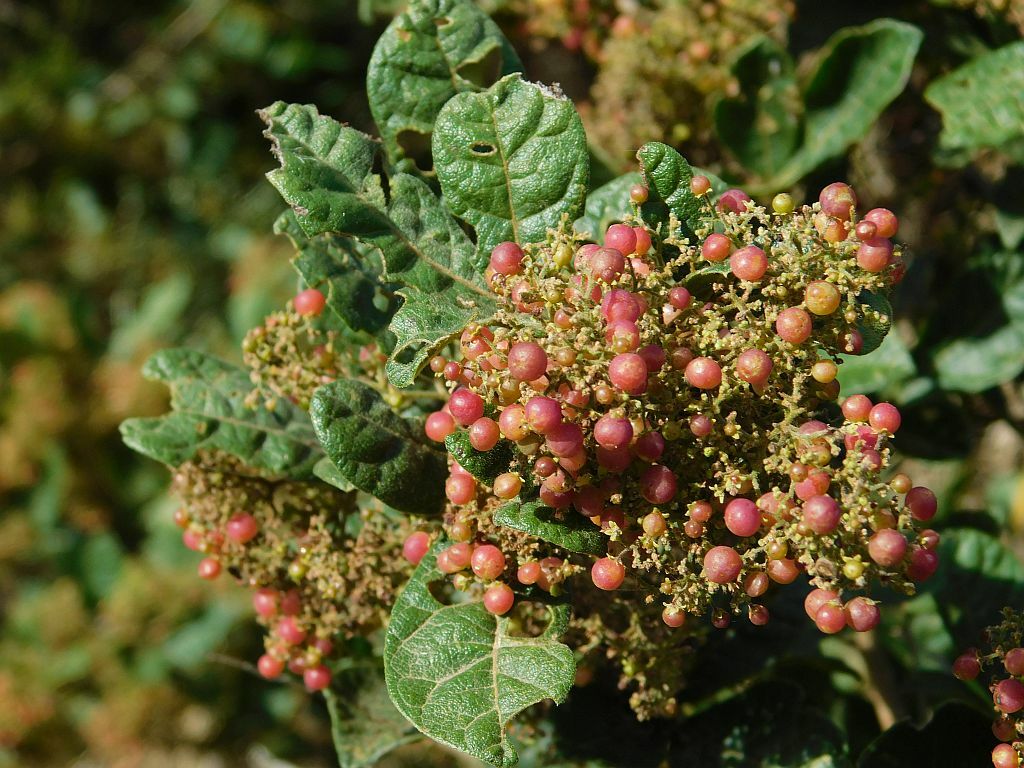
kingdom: Plantae
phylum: Tracheophyta
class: Magnoliopsida
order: Sapindales
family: Anacardiaceae
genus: Searsia
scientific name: Searsia rehmanniana
